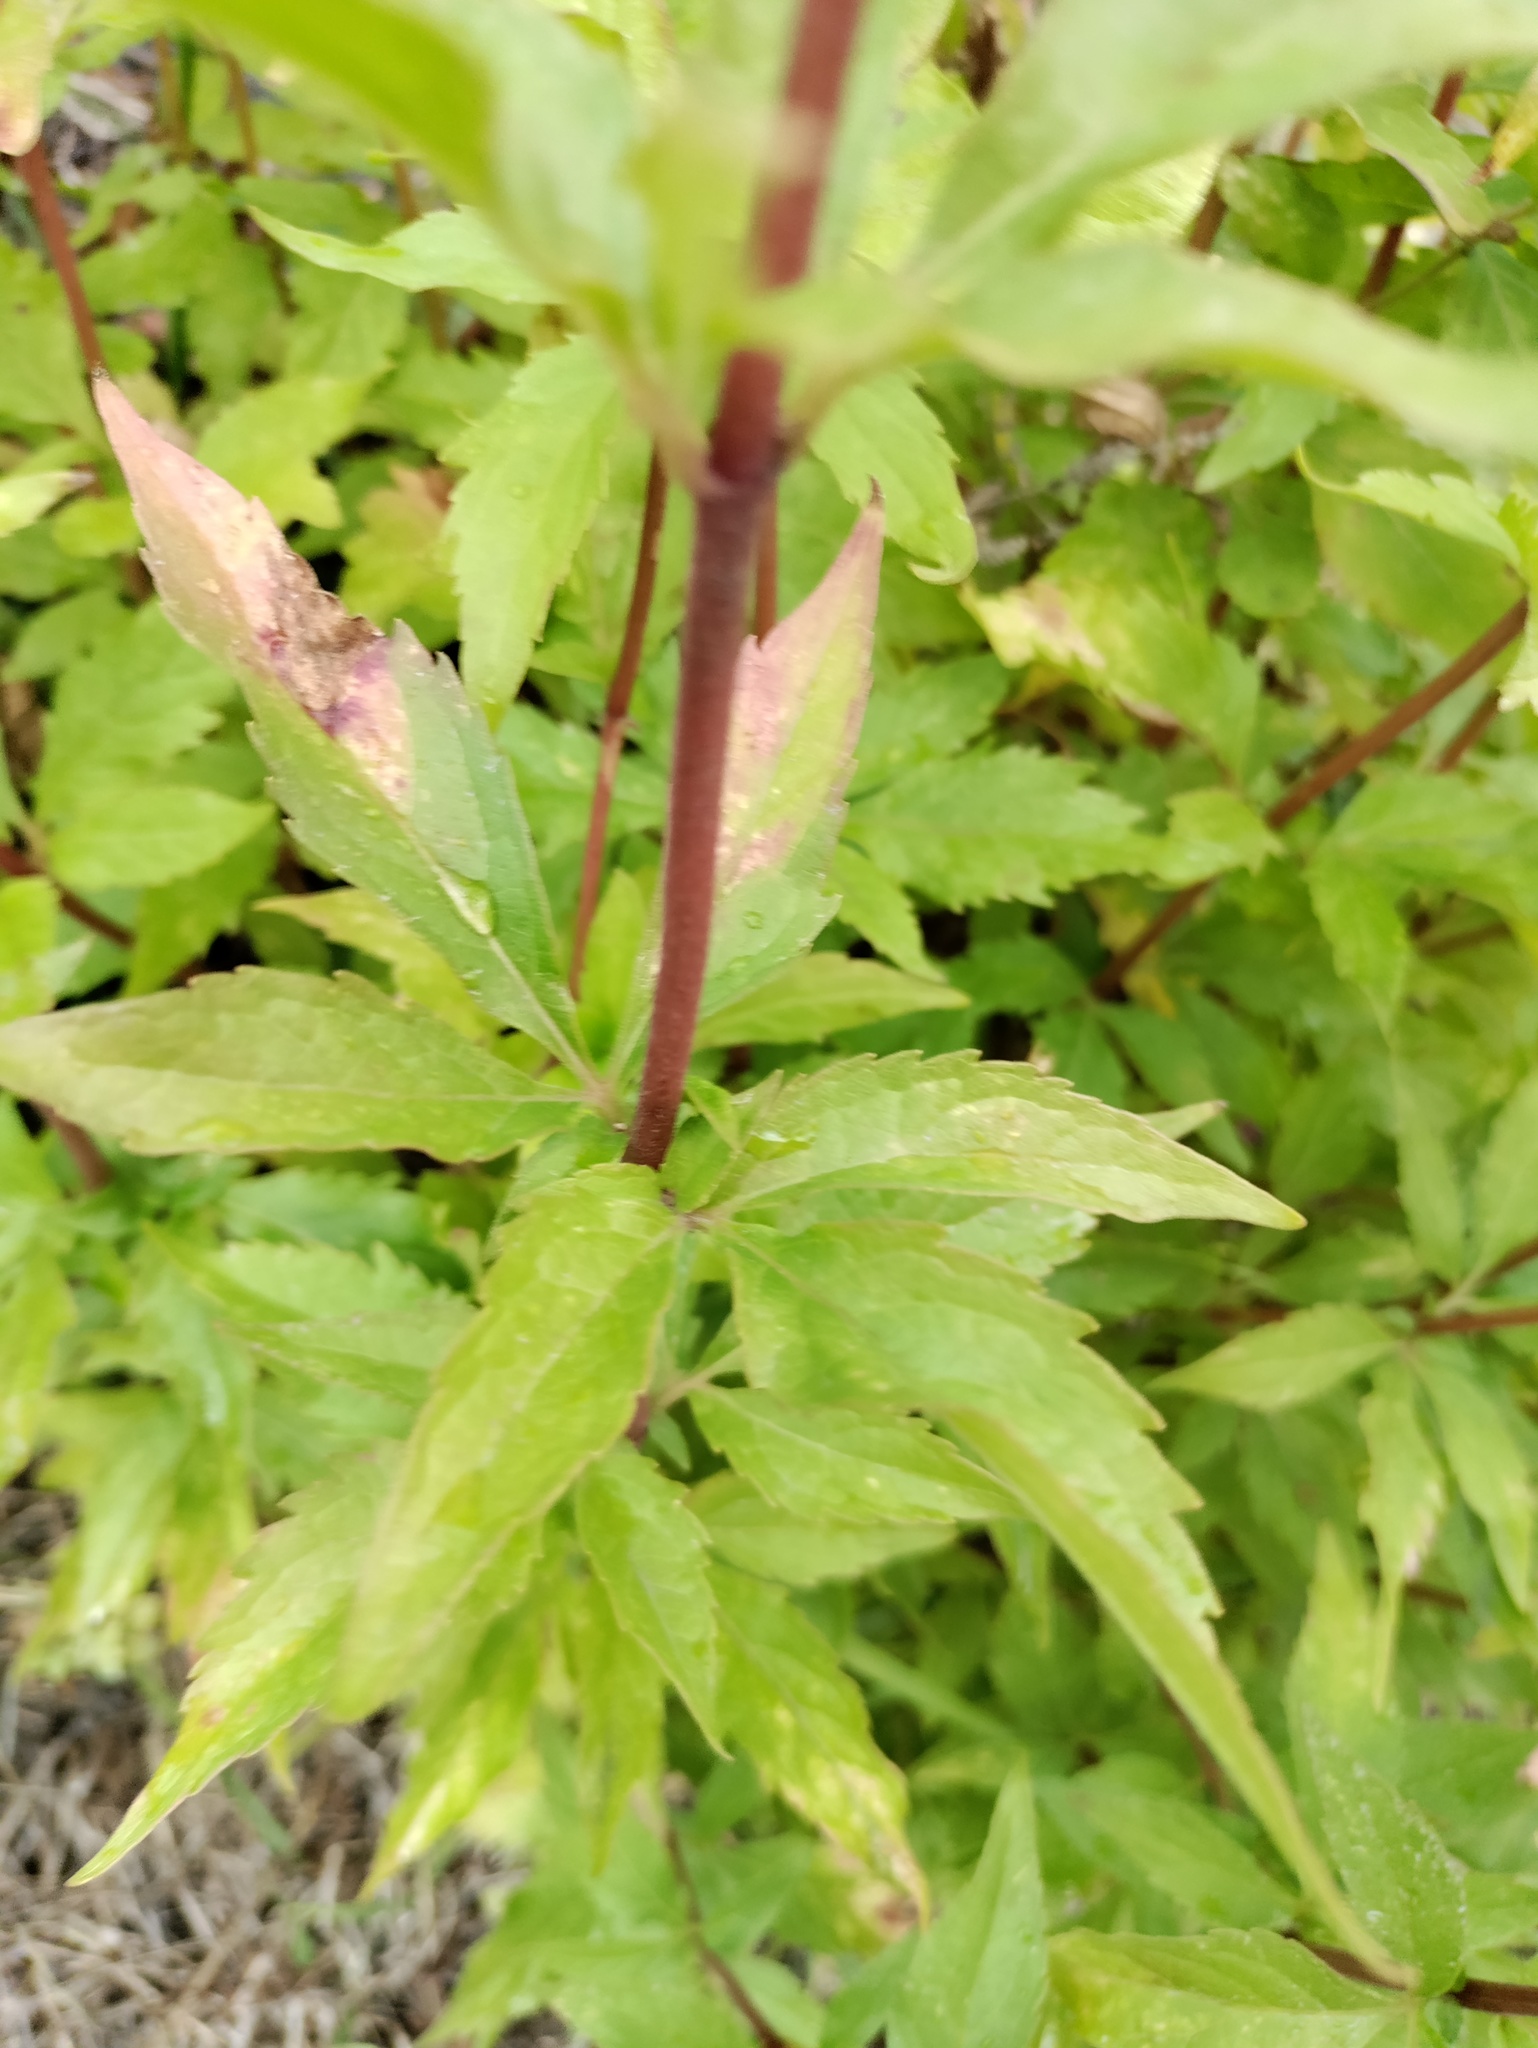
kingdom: Plantae
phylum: Tracheophyta
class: Magnoliopsida
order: Asterales
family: Asteraceae
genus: Eupatorium
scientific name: Eupatorium cannabinum
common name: Hemp-agrimony
